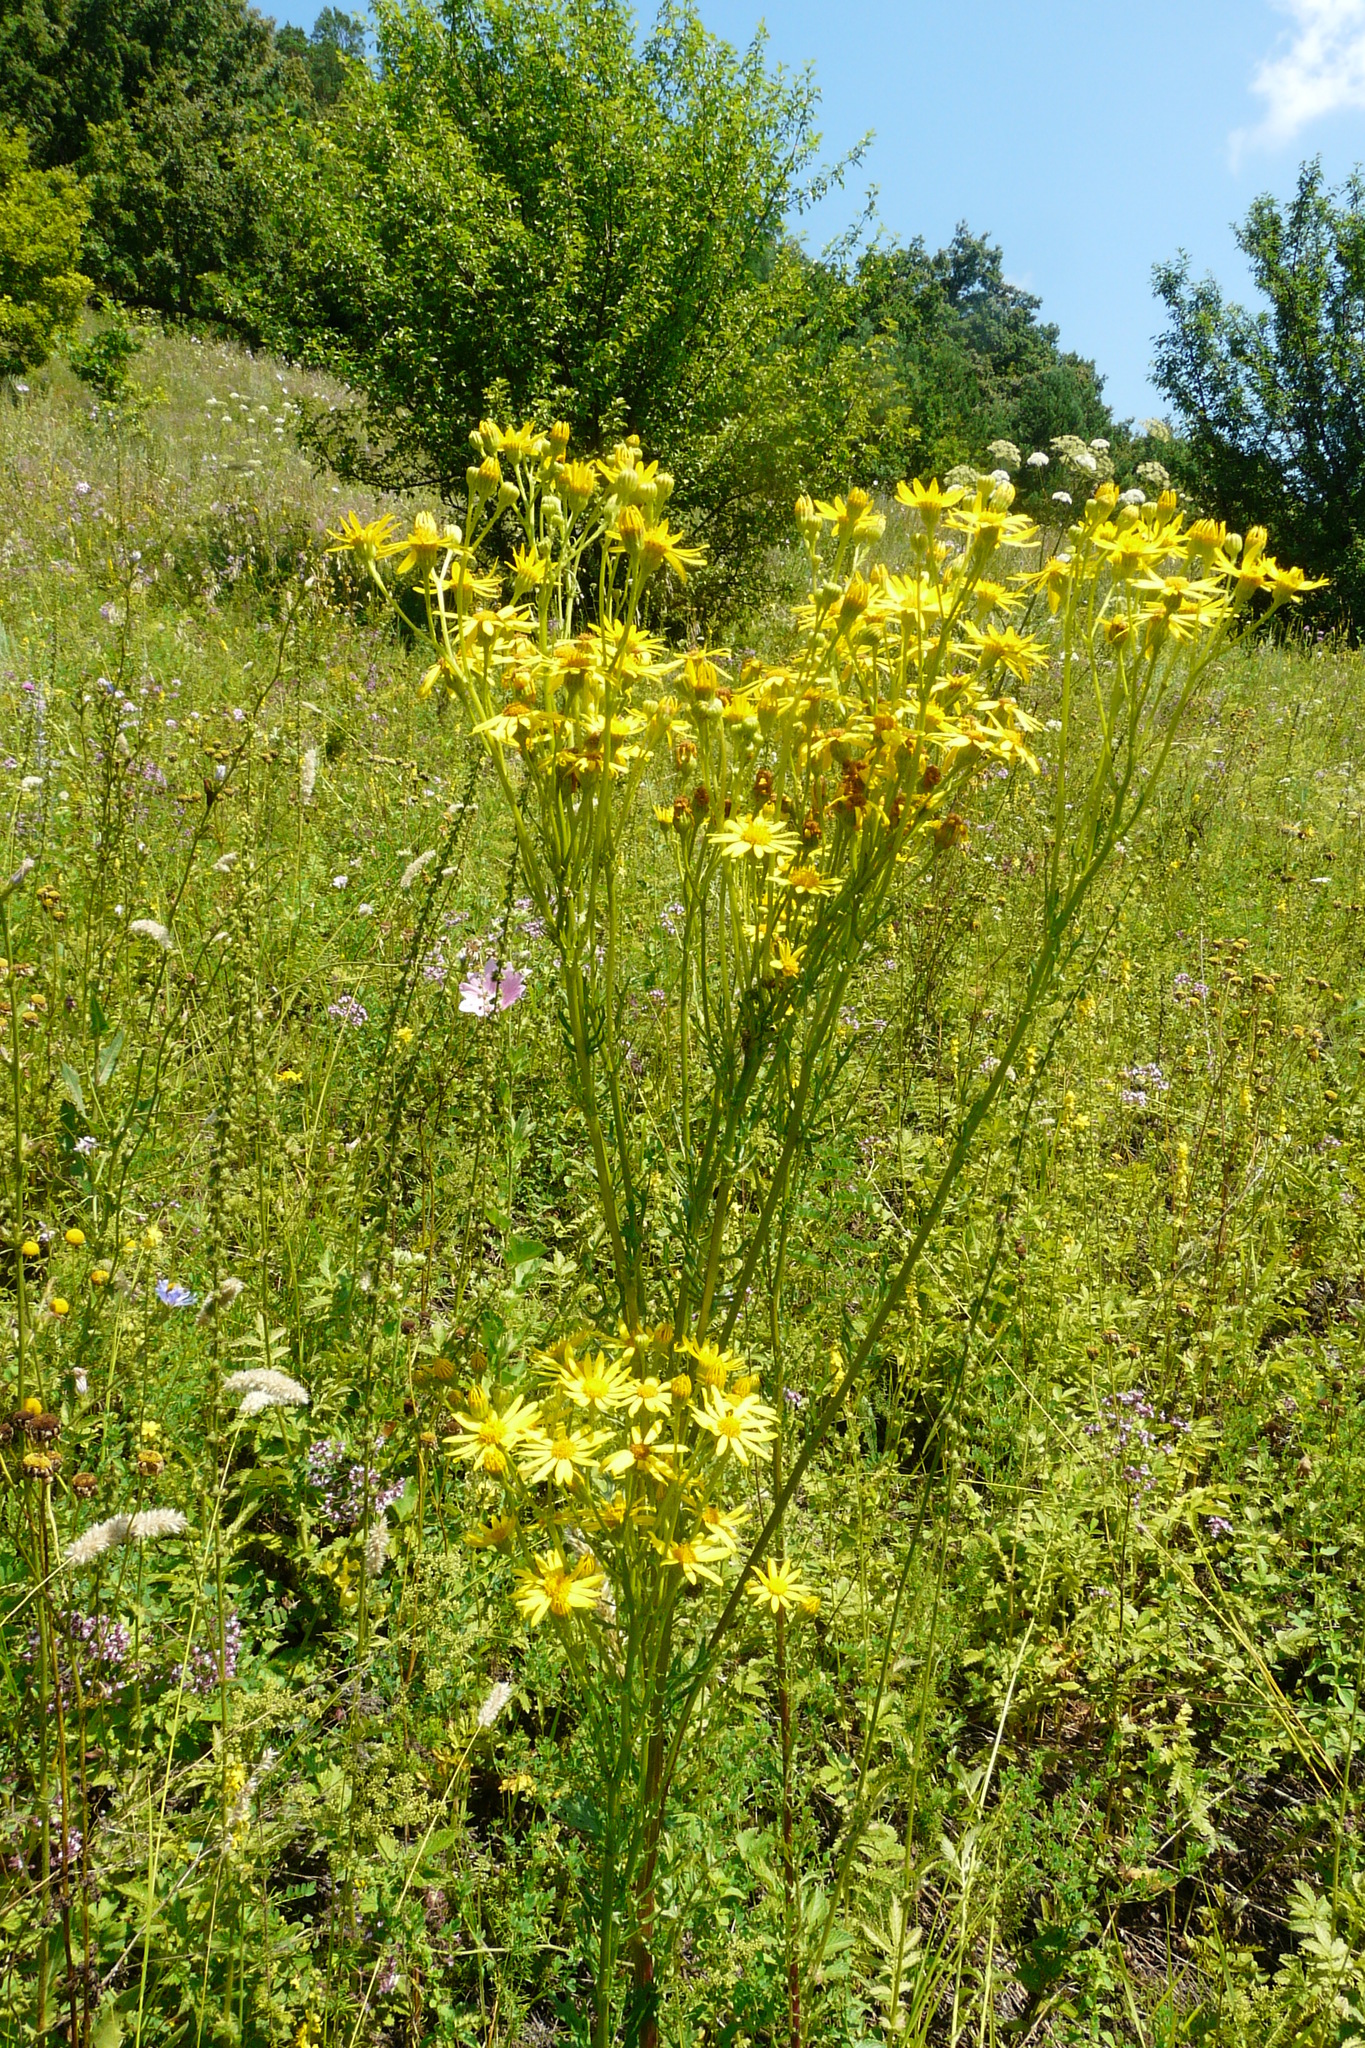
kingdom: Plantae
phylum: Tracheophyta
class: Magnoliopsida
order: Asterales
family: Asteraceae
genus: Jacobaea
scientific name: Jacobaea vulgaris
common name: Stinking willie
